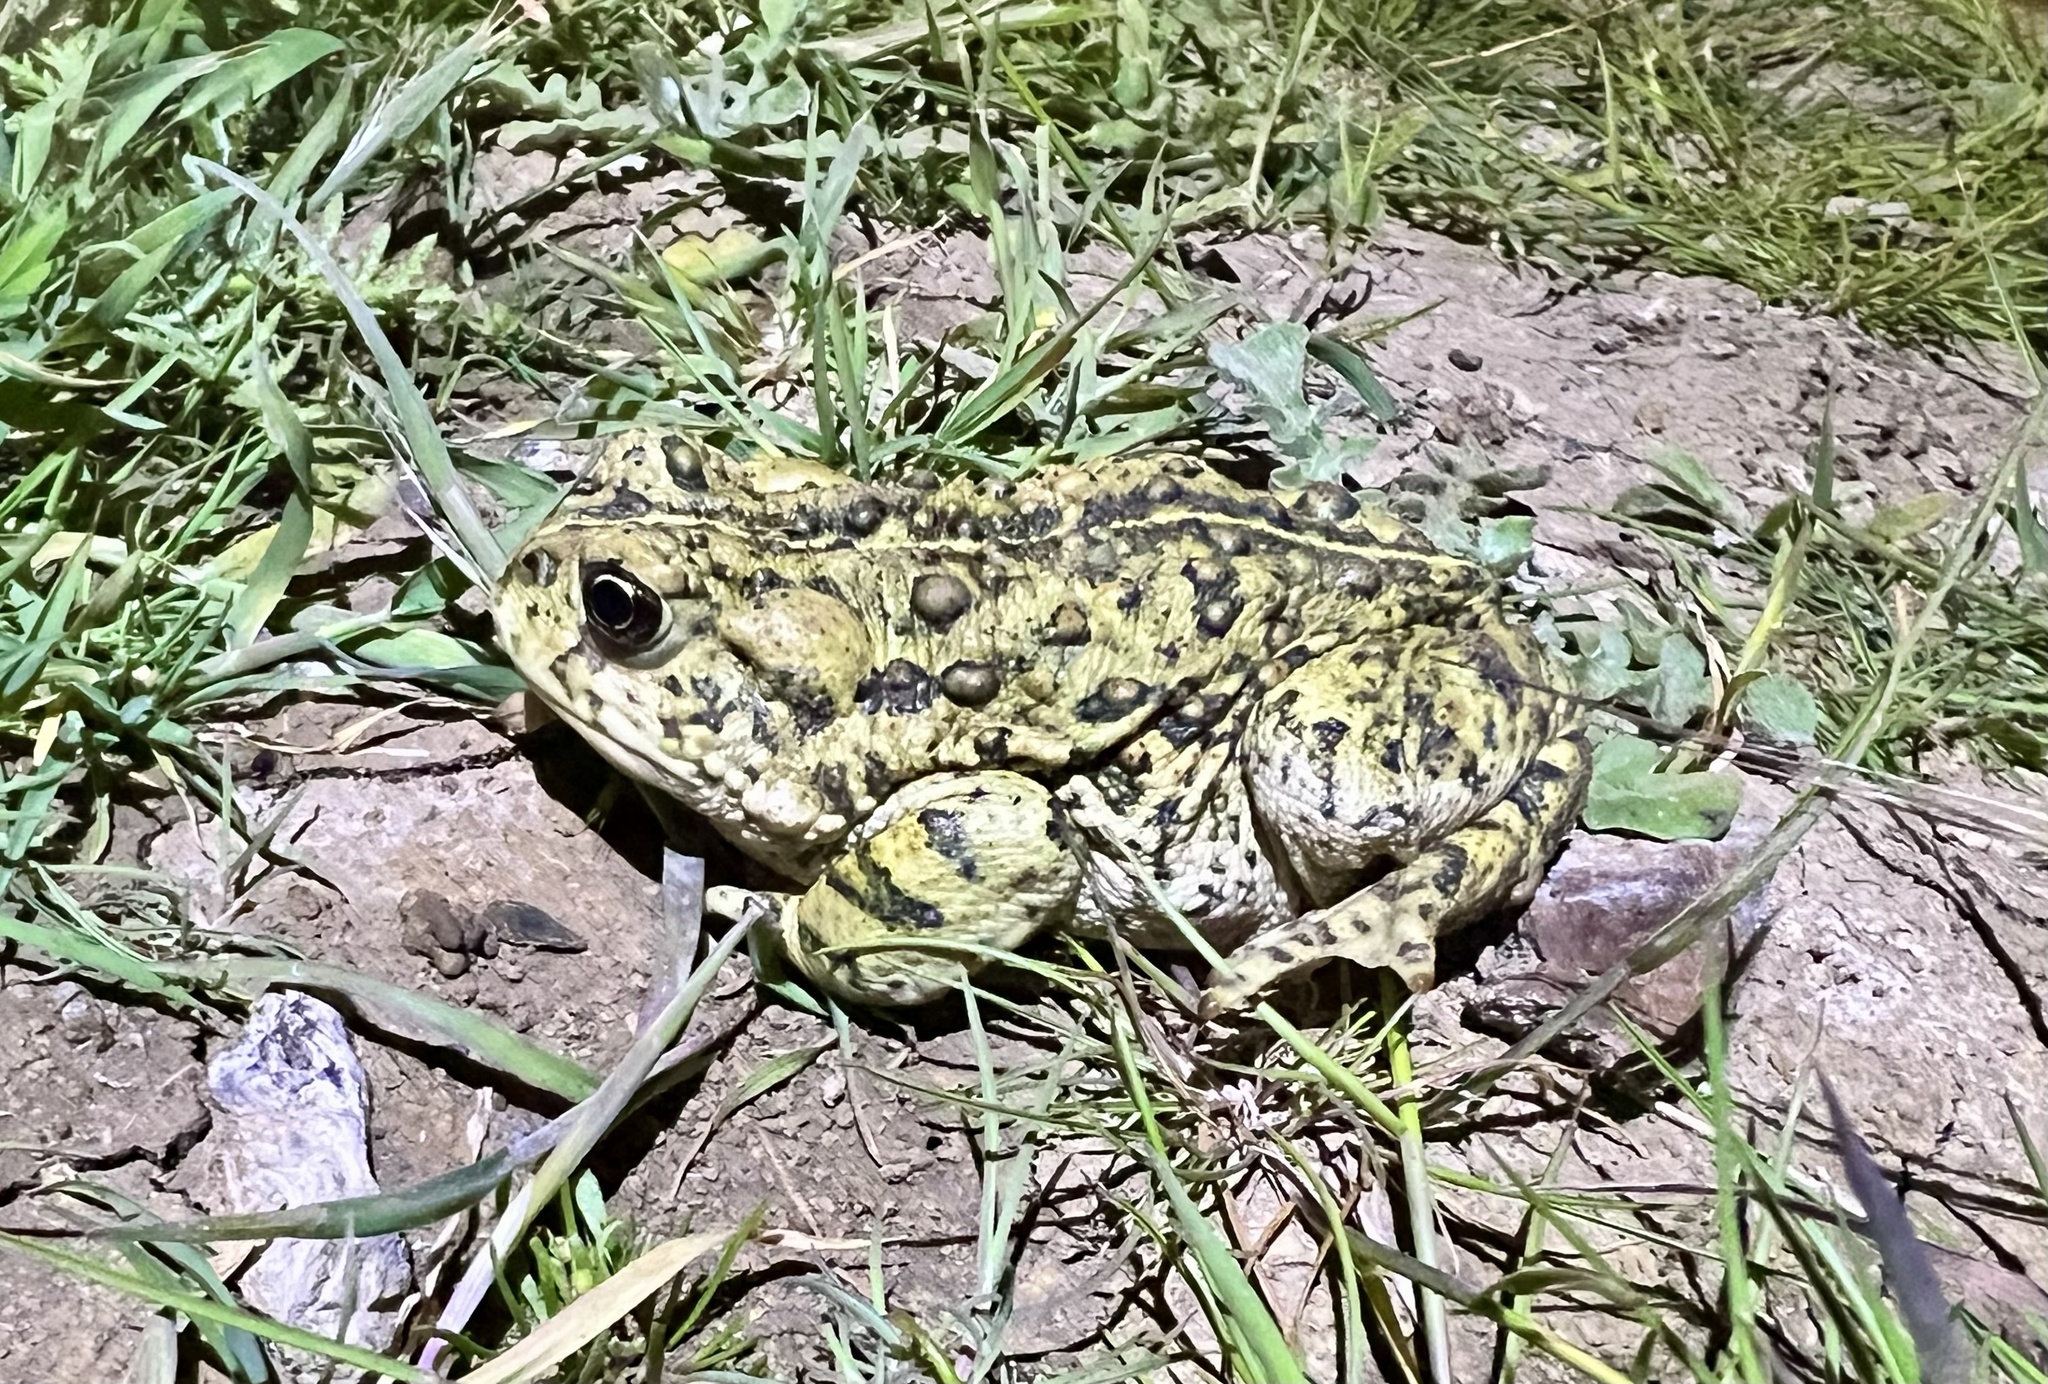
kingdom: Animalia
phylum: Chordata
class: Amphibia
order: Anura
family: Bufonidae
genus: Anaxyrus
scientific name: Anaxyrus boreas
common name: Western toad
